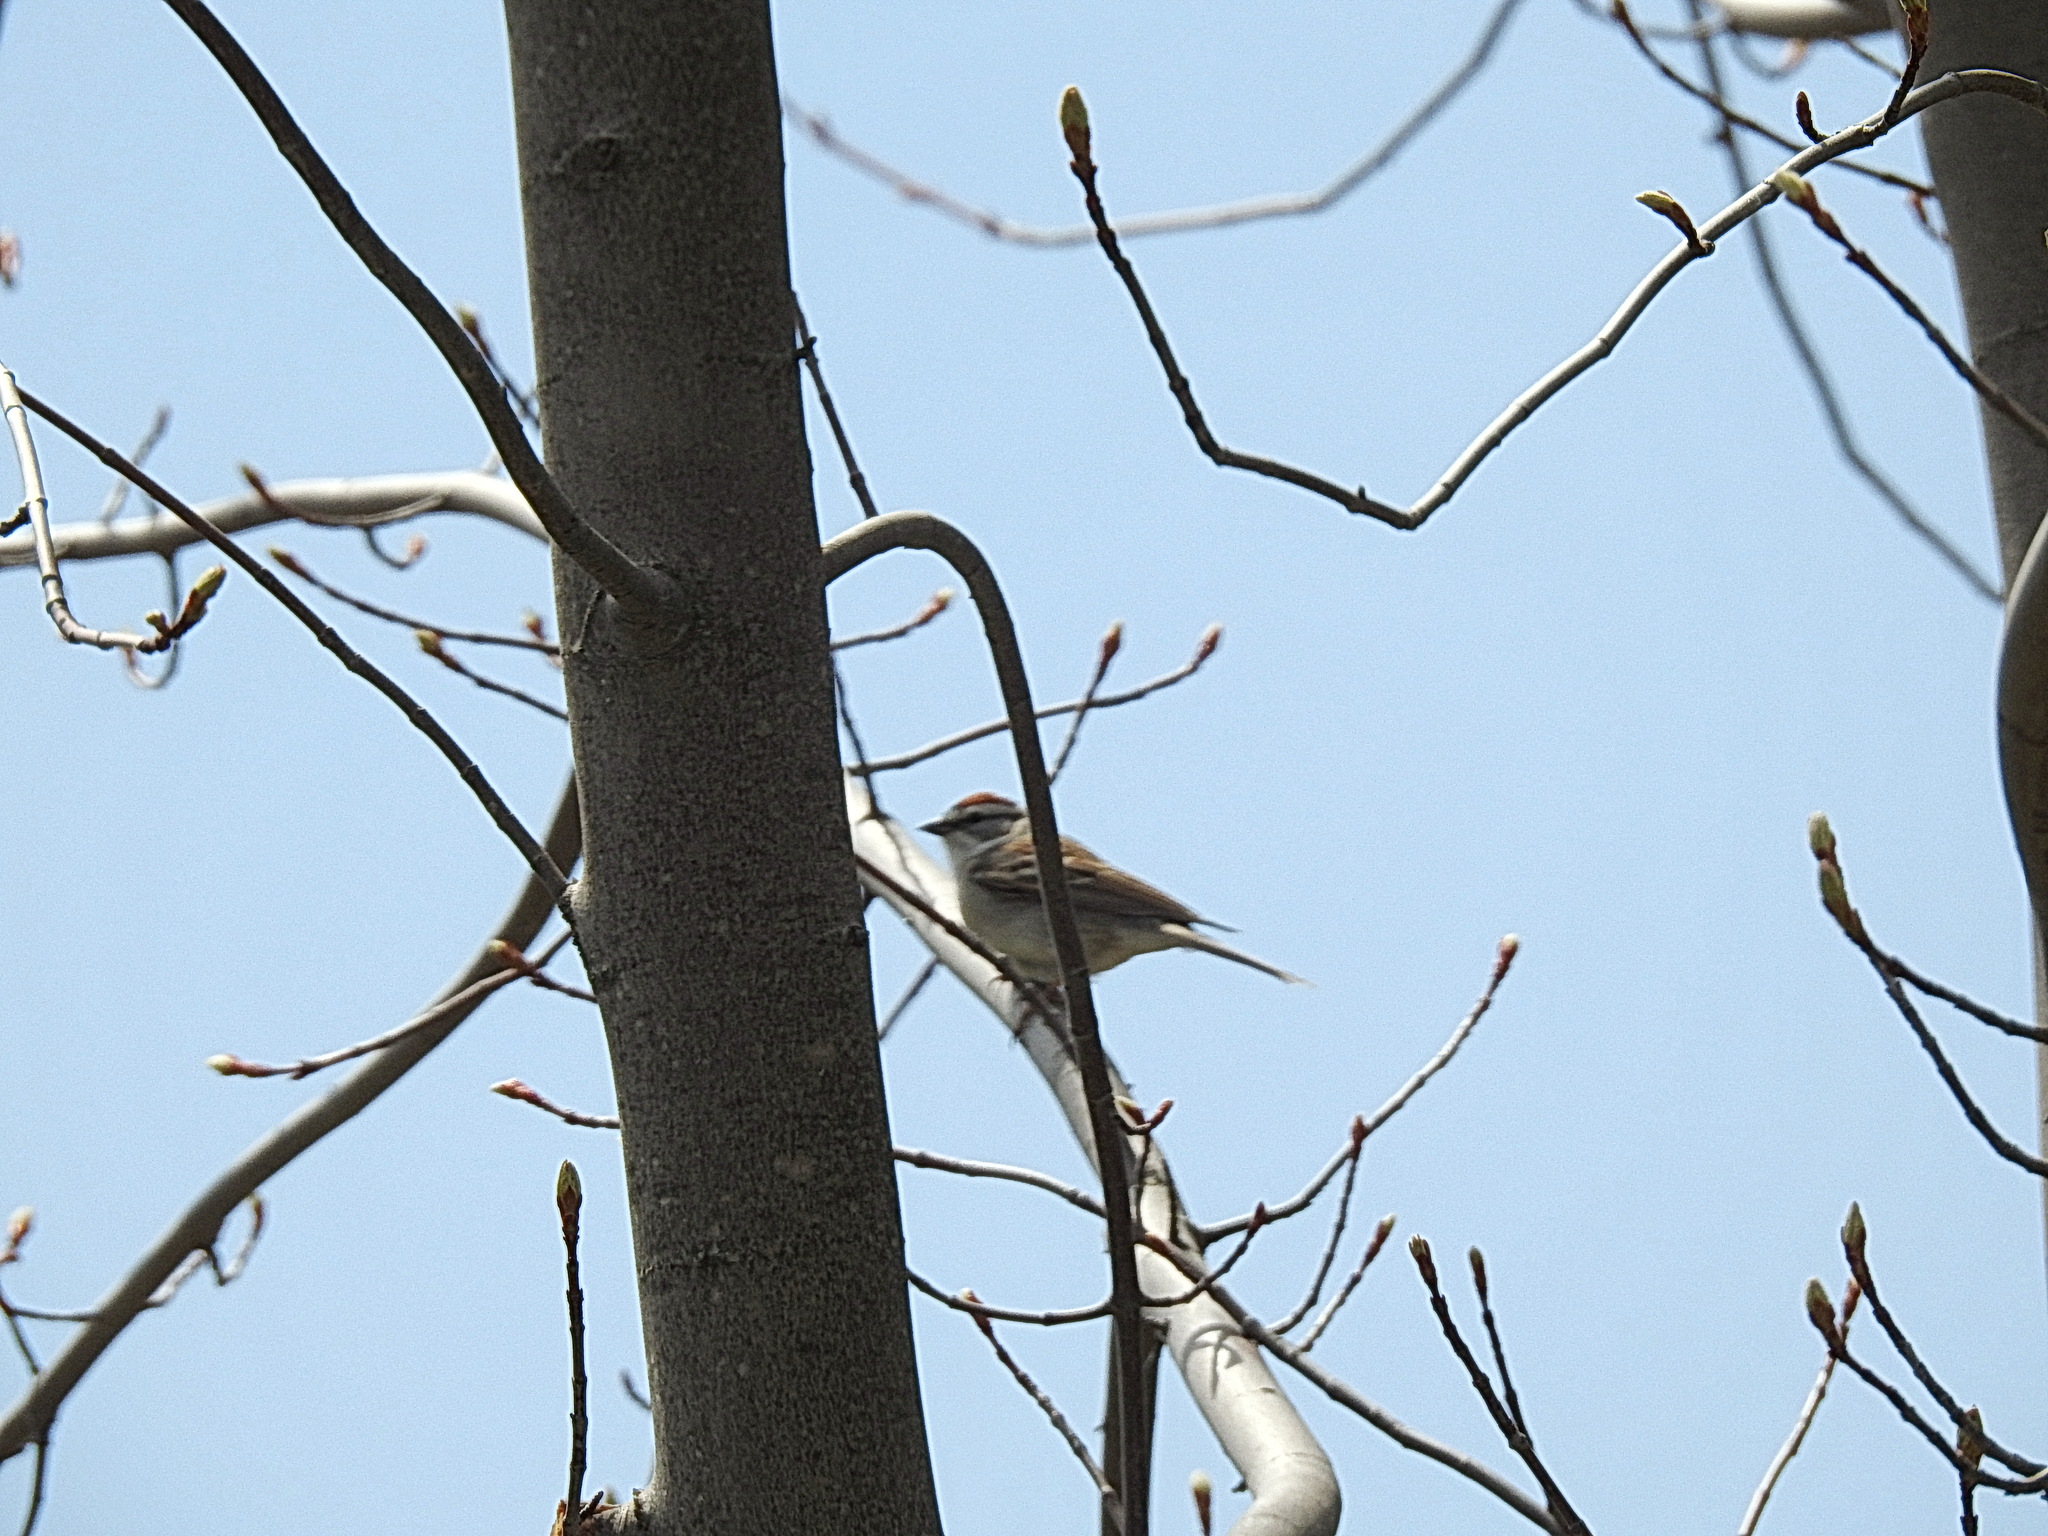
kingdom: Animalia
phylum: Chordata
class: Aves
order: Passeriformes
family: Passerellidae
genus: Spizella
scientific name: Spizella passerina
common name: Chipping sparrow
